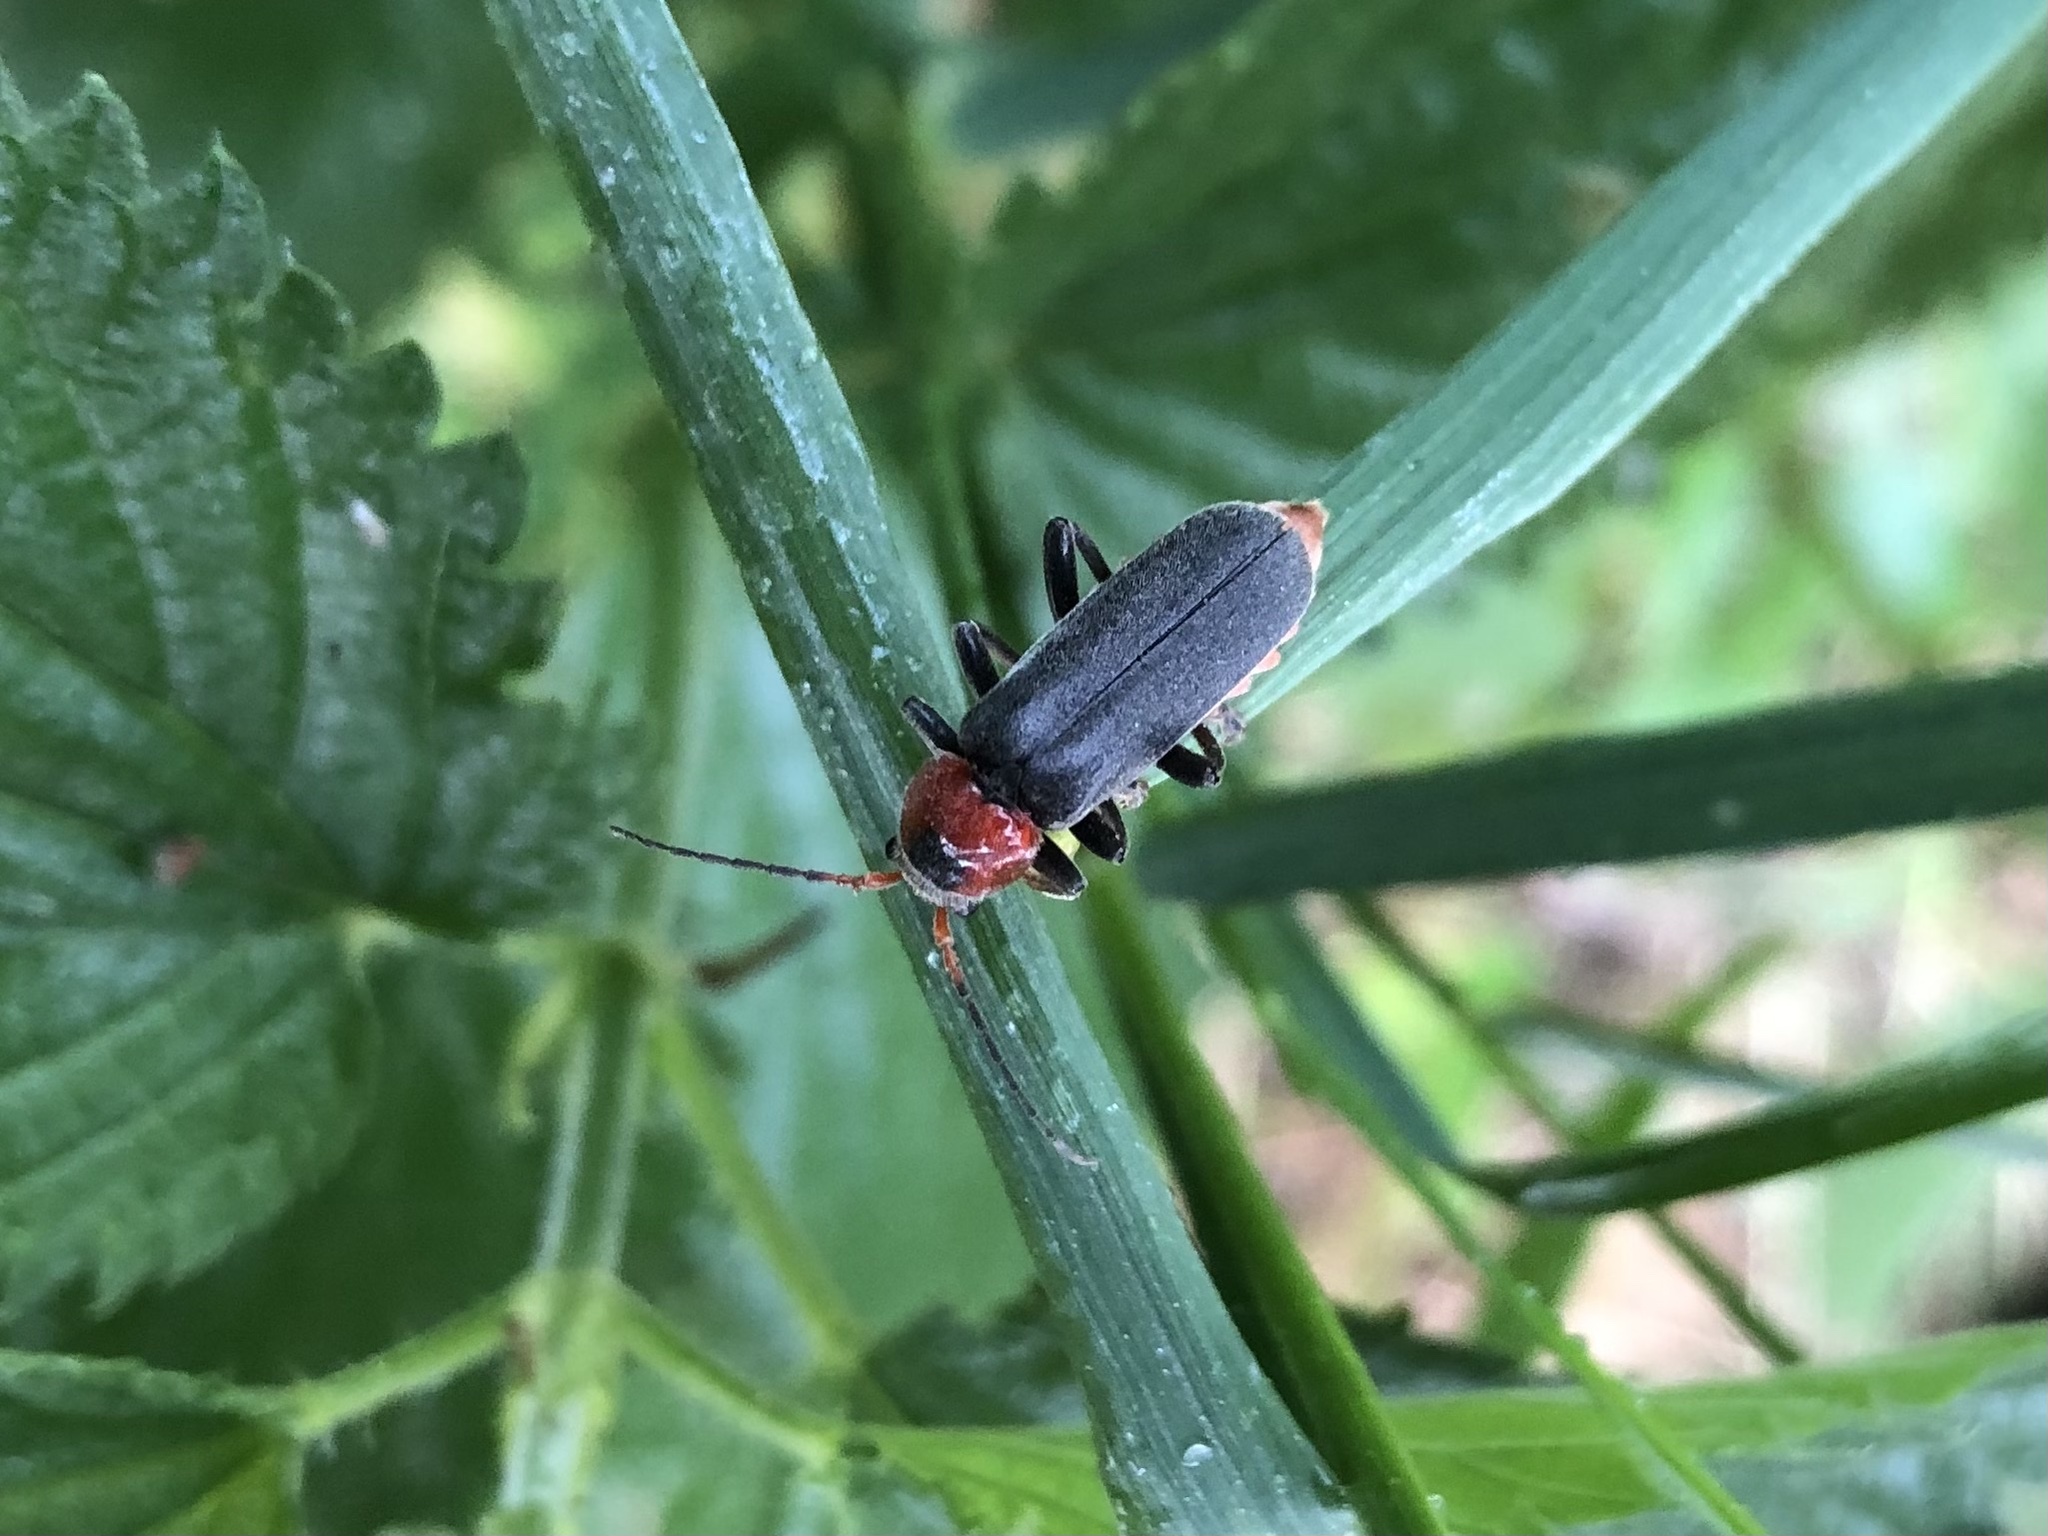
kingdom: Animalia
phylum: Arthropoda
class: Insecta
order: Coleoptera
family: Cantharidae
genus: Cantharis
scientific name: Cantharis fusca
